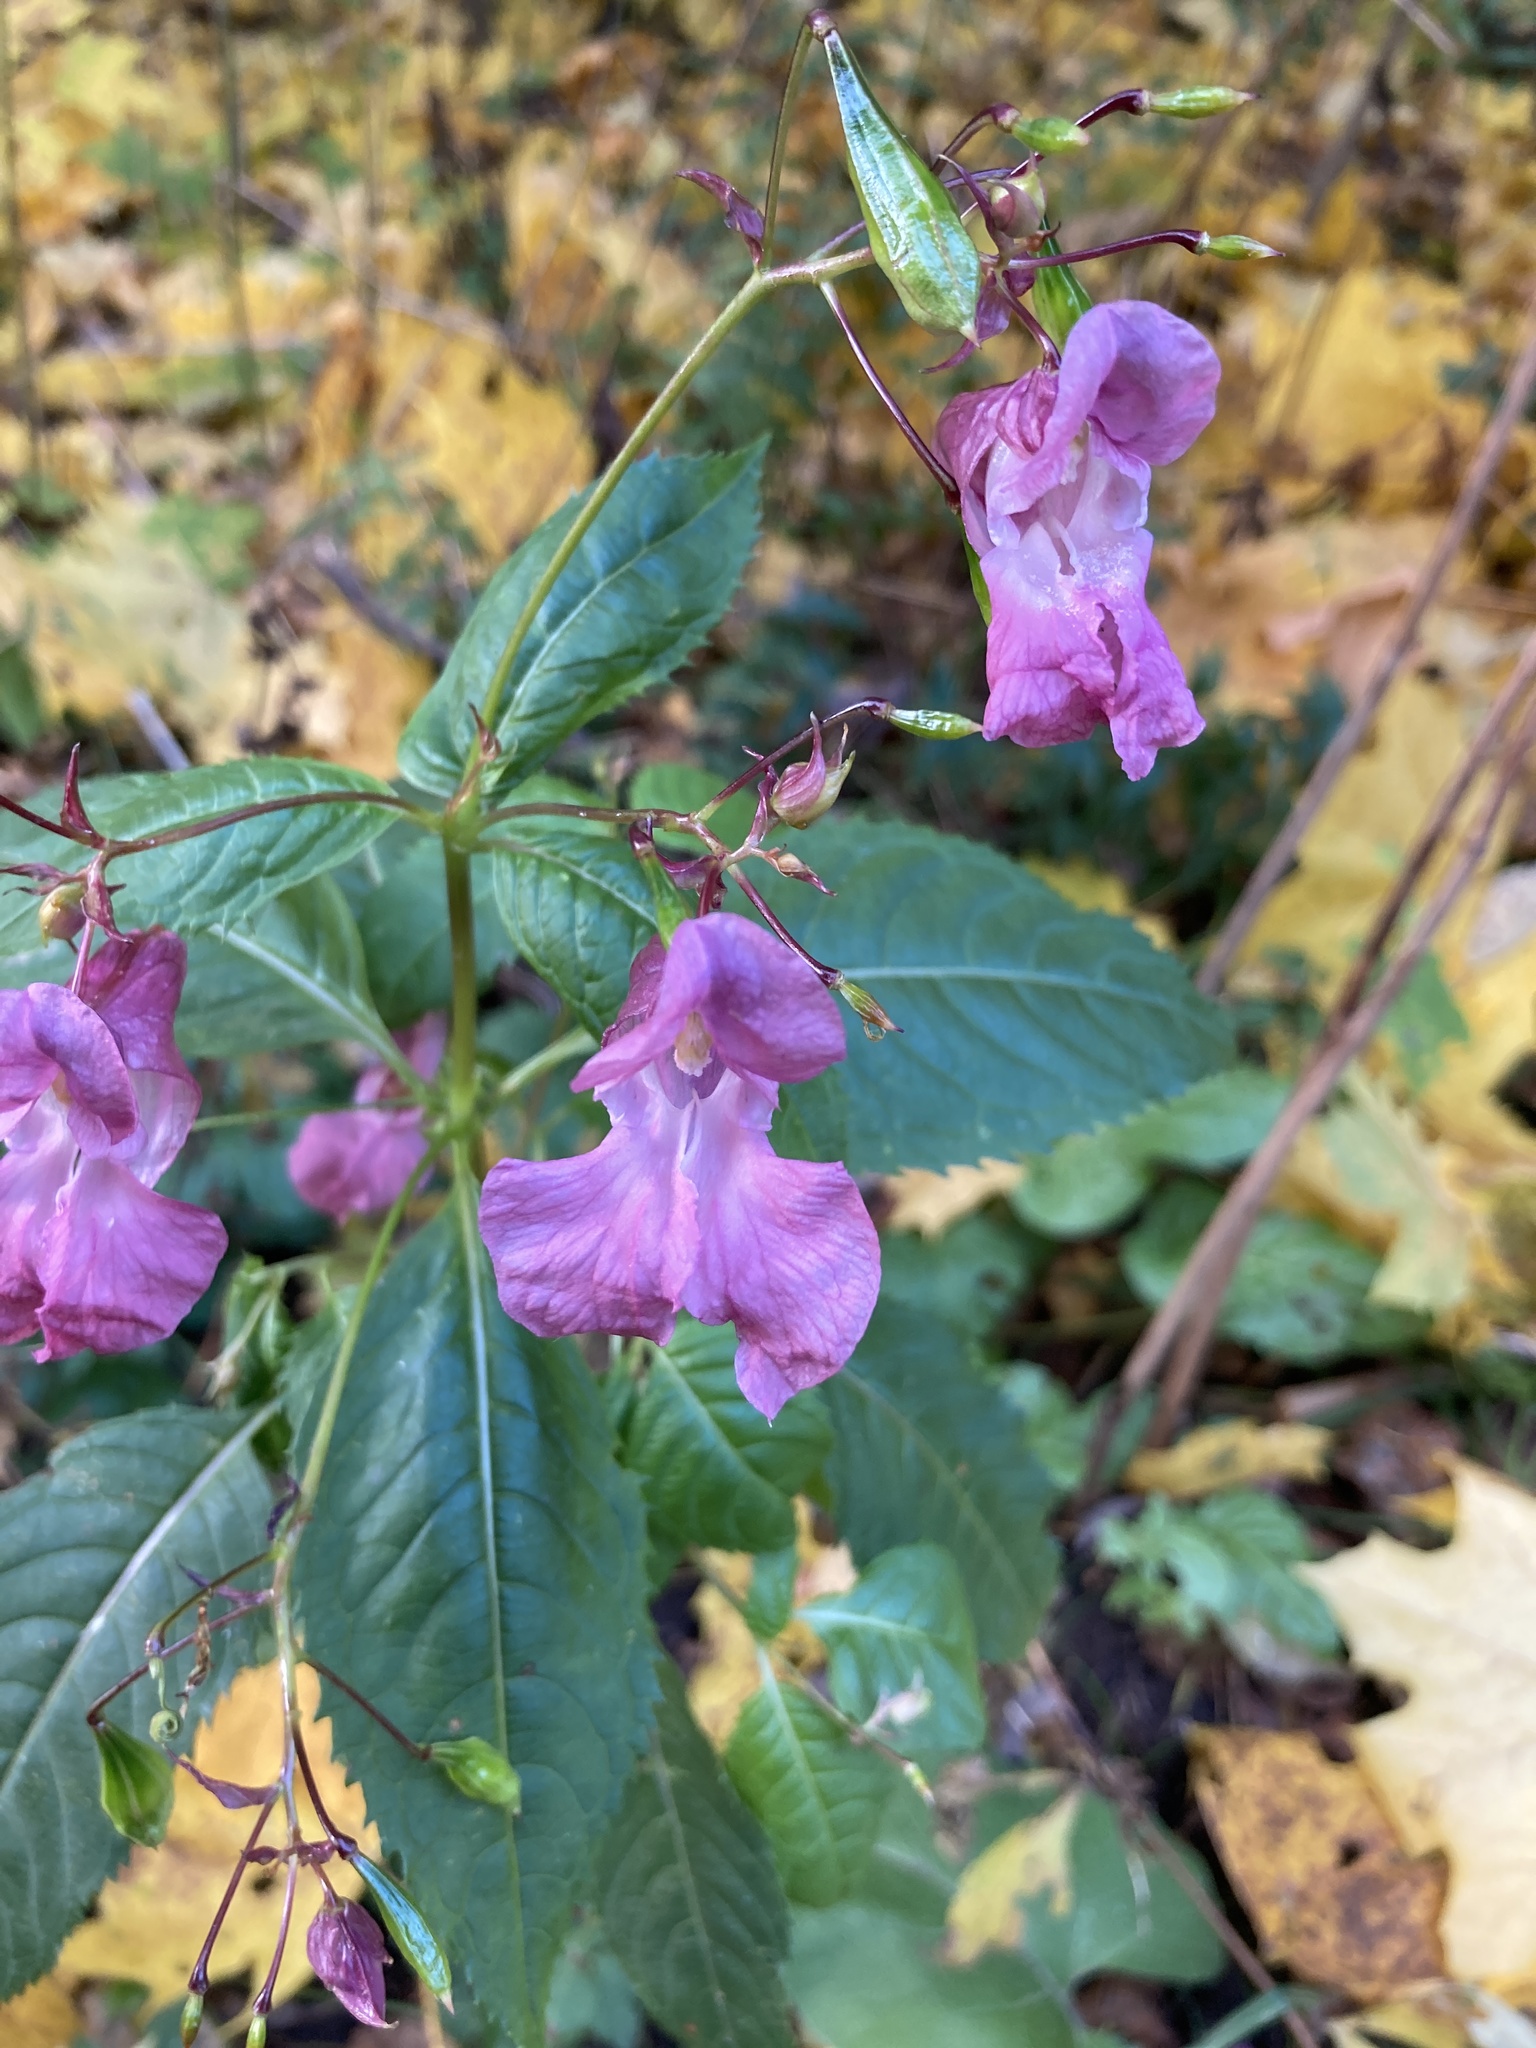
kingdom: Plantae
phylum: Tracheophyta
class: Magnoliopsida
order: Ericales
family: Balsaminaceae
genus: Impatiens
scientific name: Impatiens glandulifera
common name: Himalayan balsam
